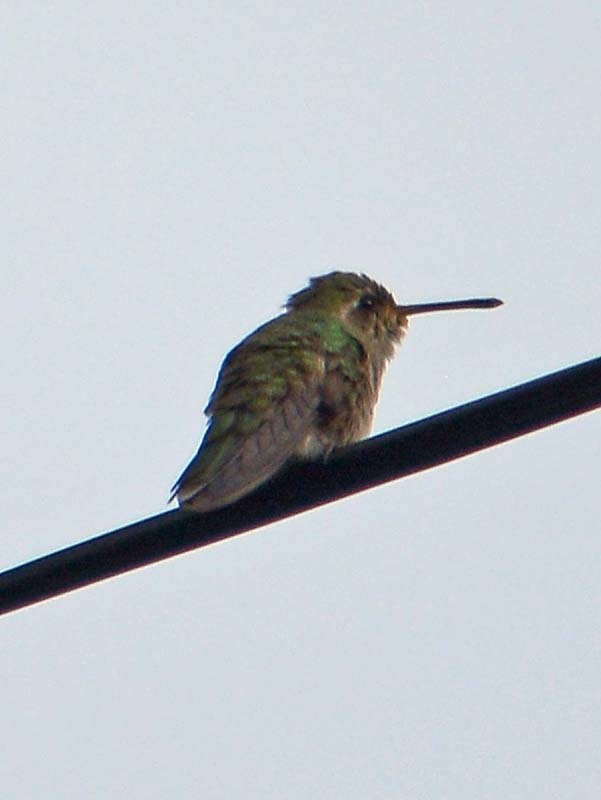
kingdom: Animalia
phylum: Chordata
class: Aves
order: Apodiformes
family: Trochilidae
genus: Cynanthus
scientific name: Cynanthus latirostris
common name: Broad-billed hummingbird
